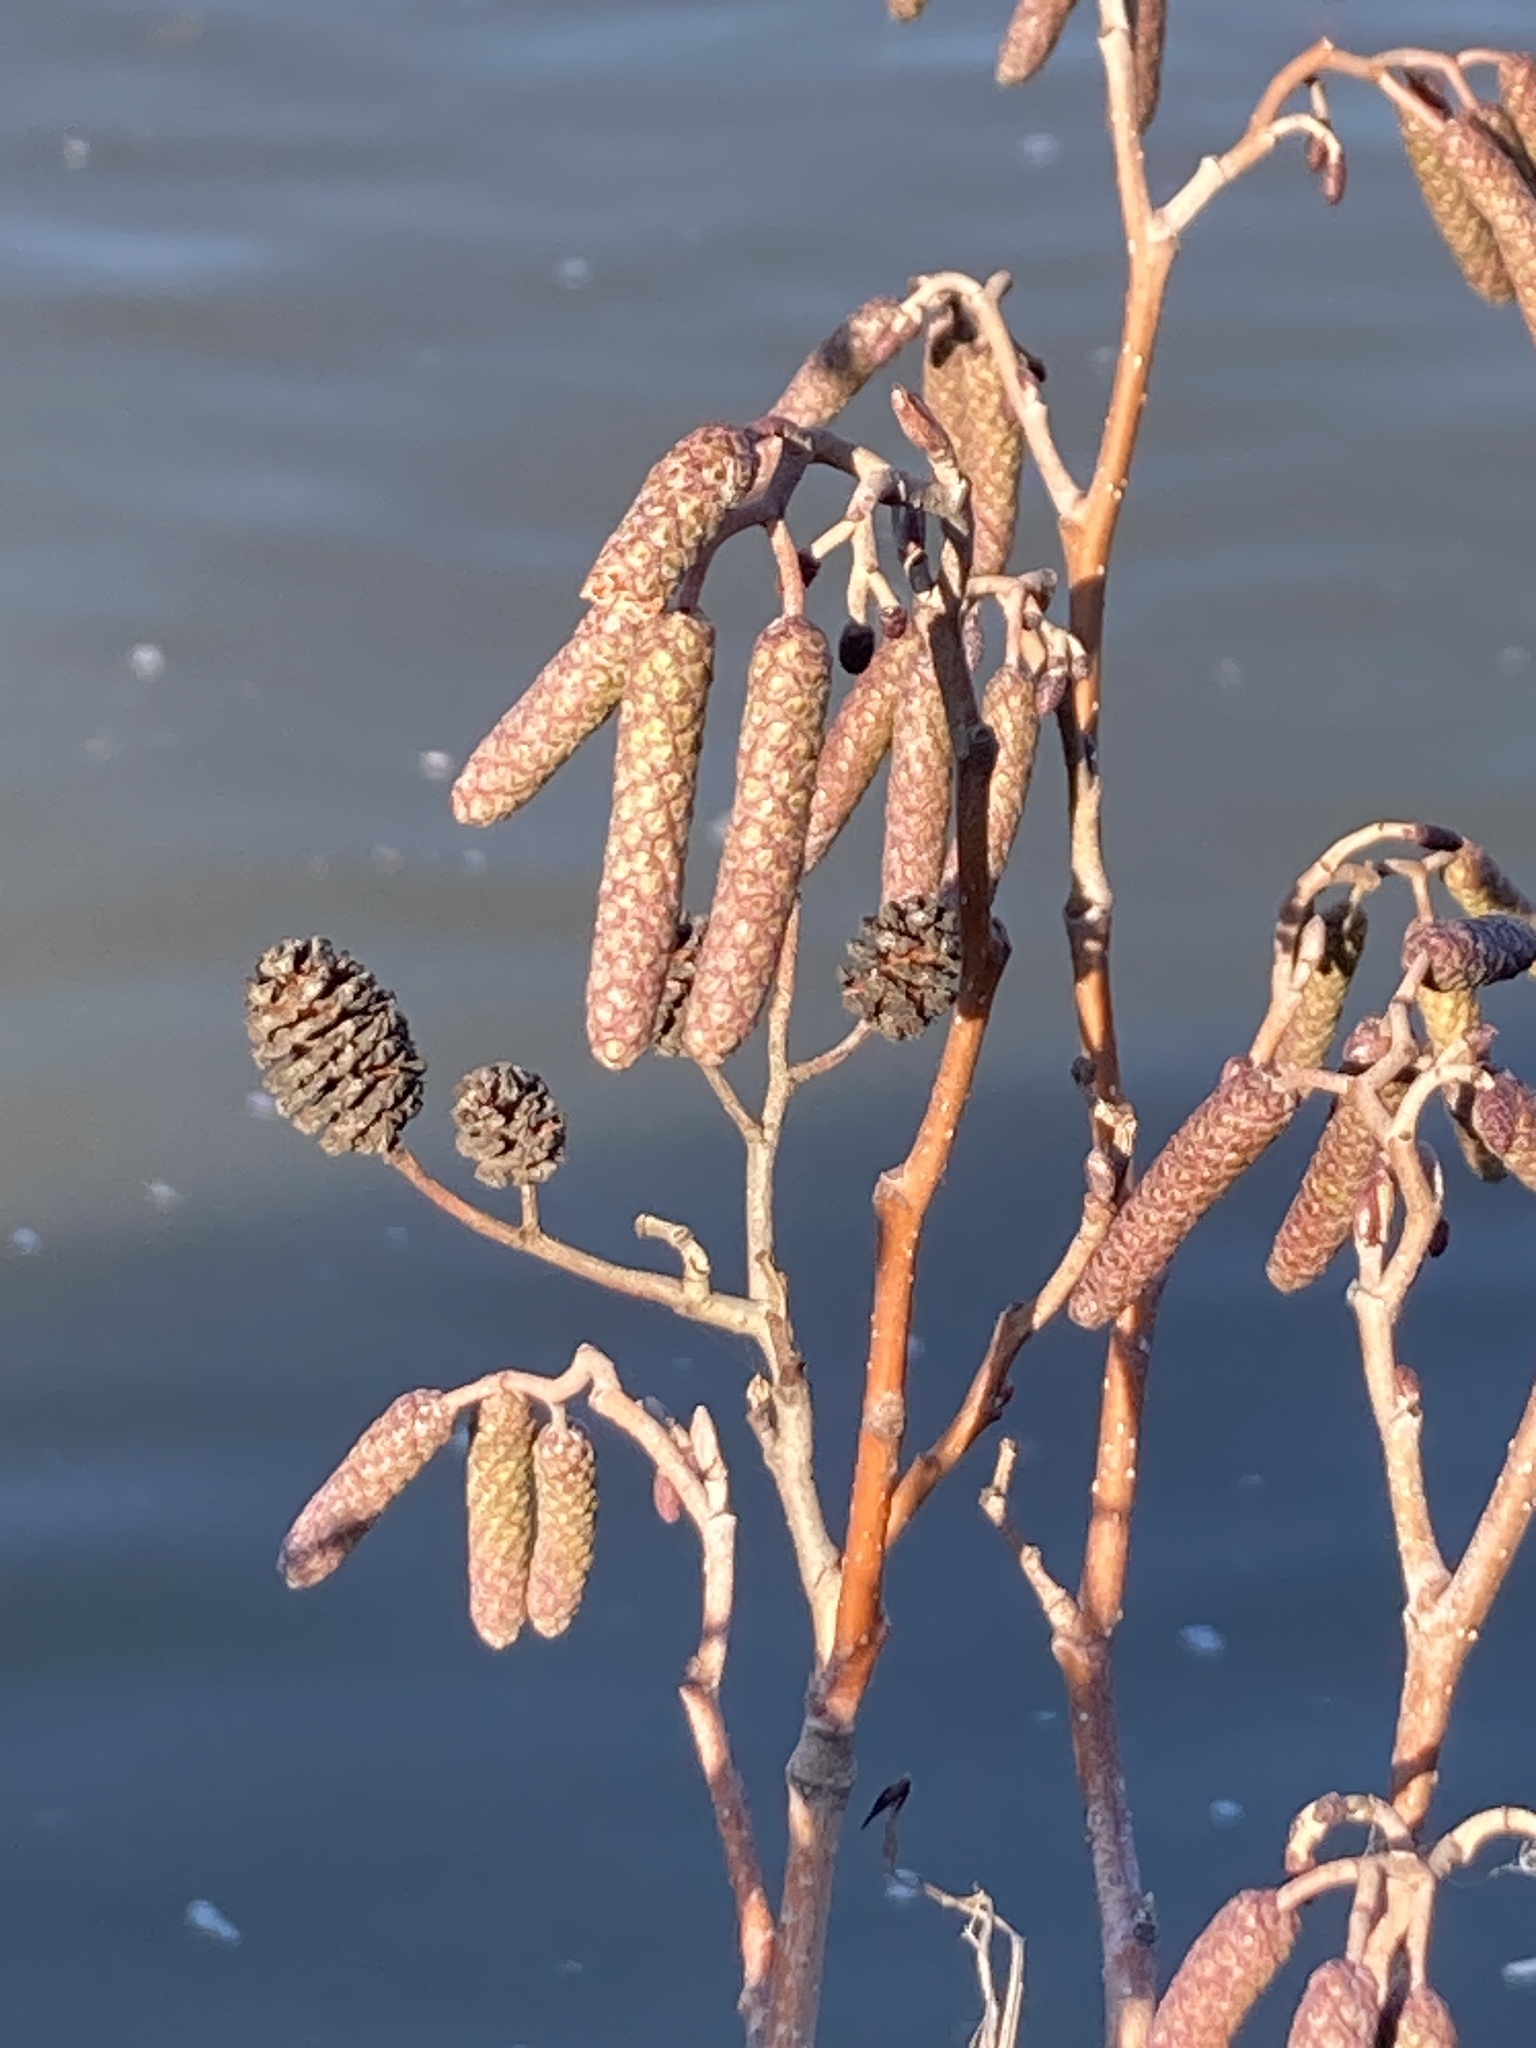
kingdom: Plantae
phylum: Tracheophyta
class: Magnoliopsida
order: Fagales
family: Betulaceae
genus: Alnus
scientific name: Alnus glutinosa
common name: Black alder
